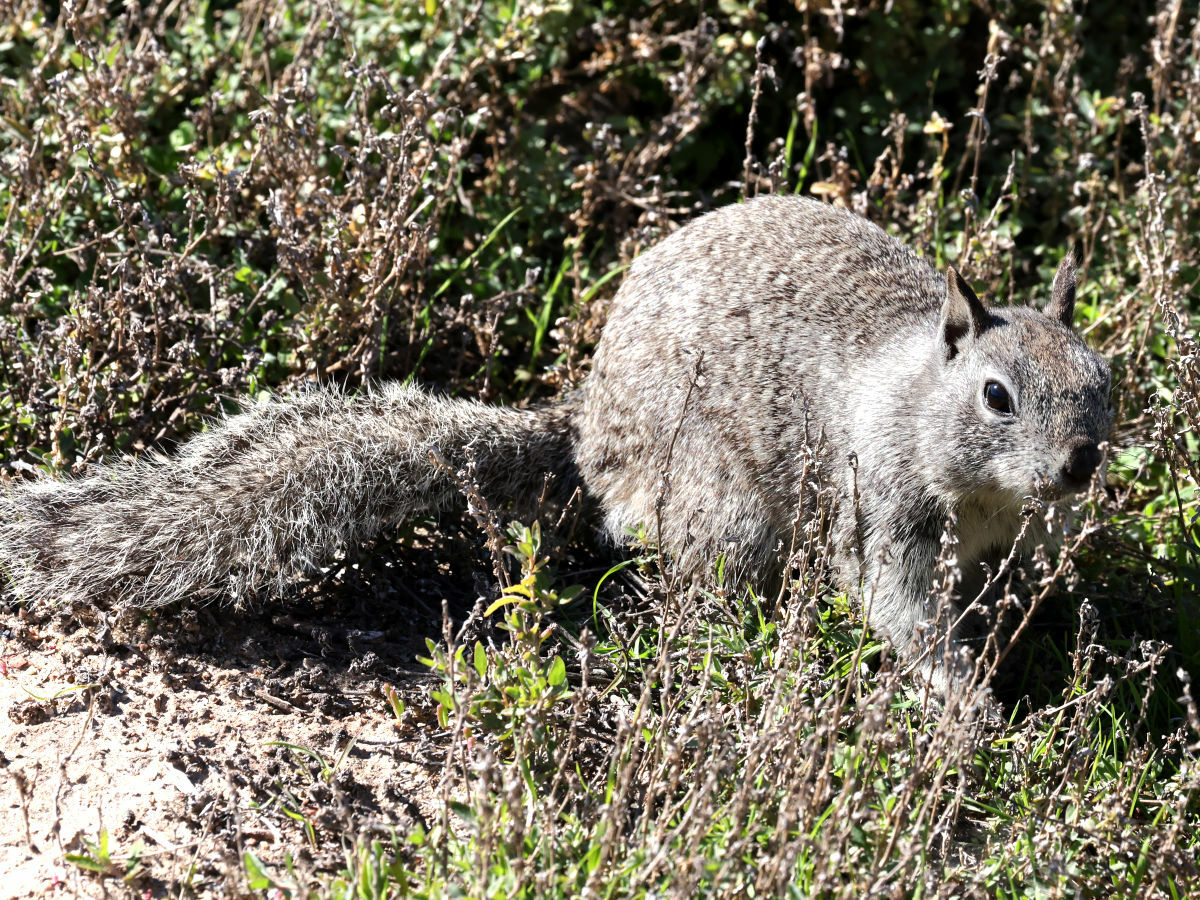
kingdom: Animalia
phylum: Chordata
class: Mammalia
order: Rodentia
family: Sciuridae
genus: Otospermophilus
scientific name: Otospermophilus beecheyi
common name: California ground squirrel
